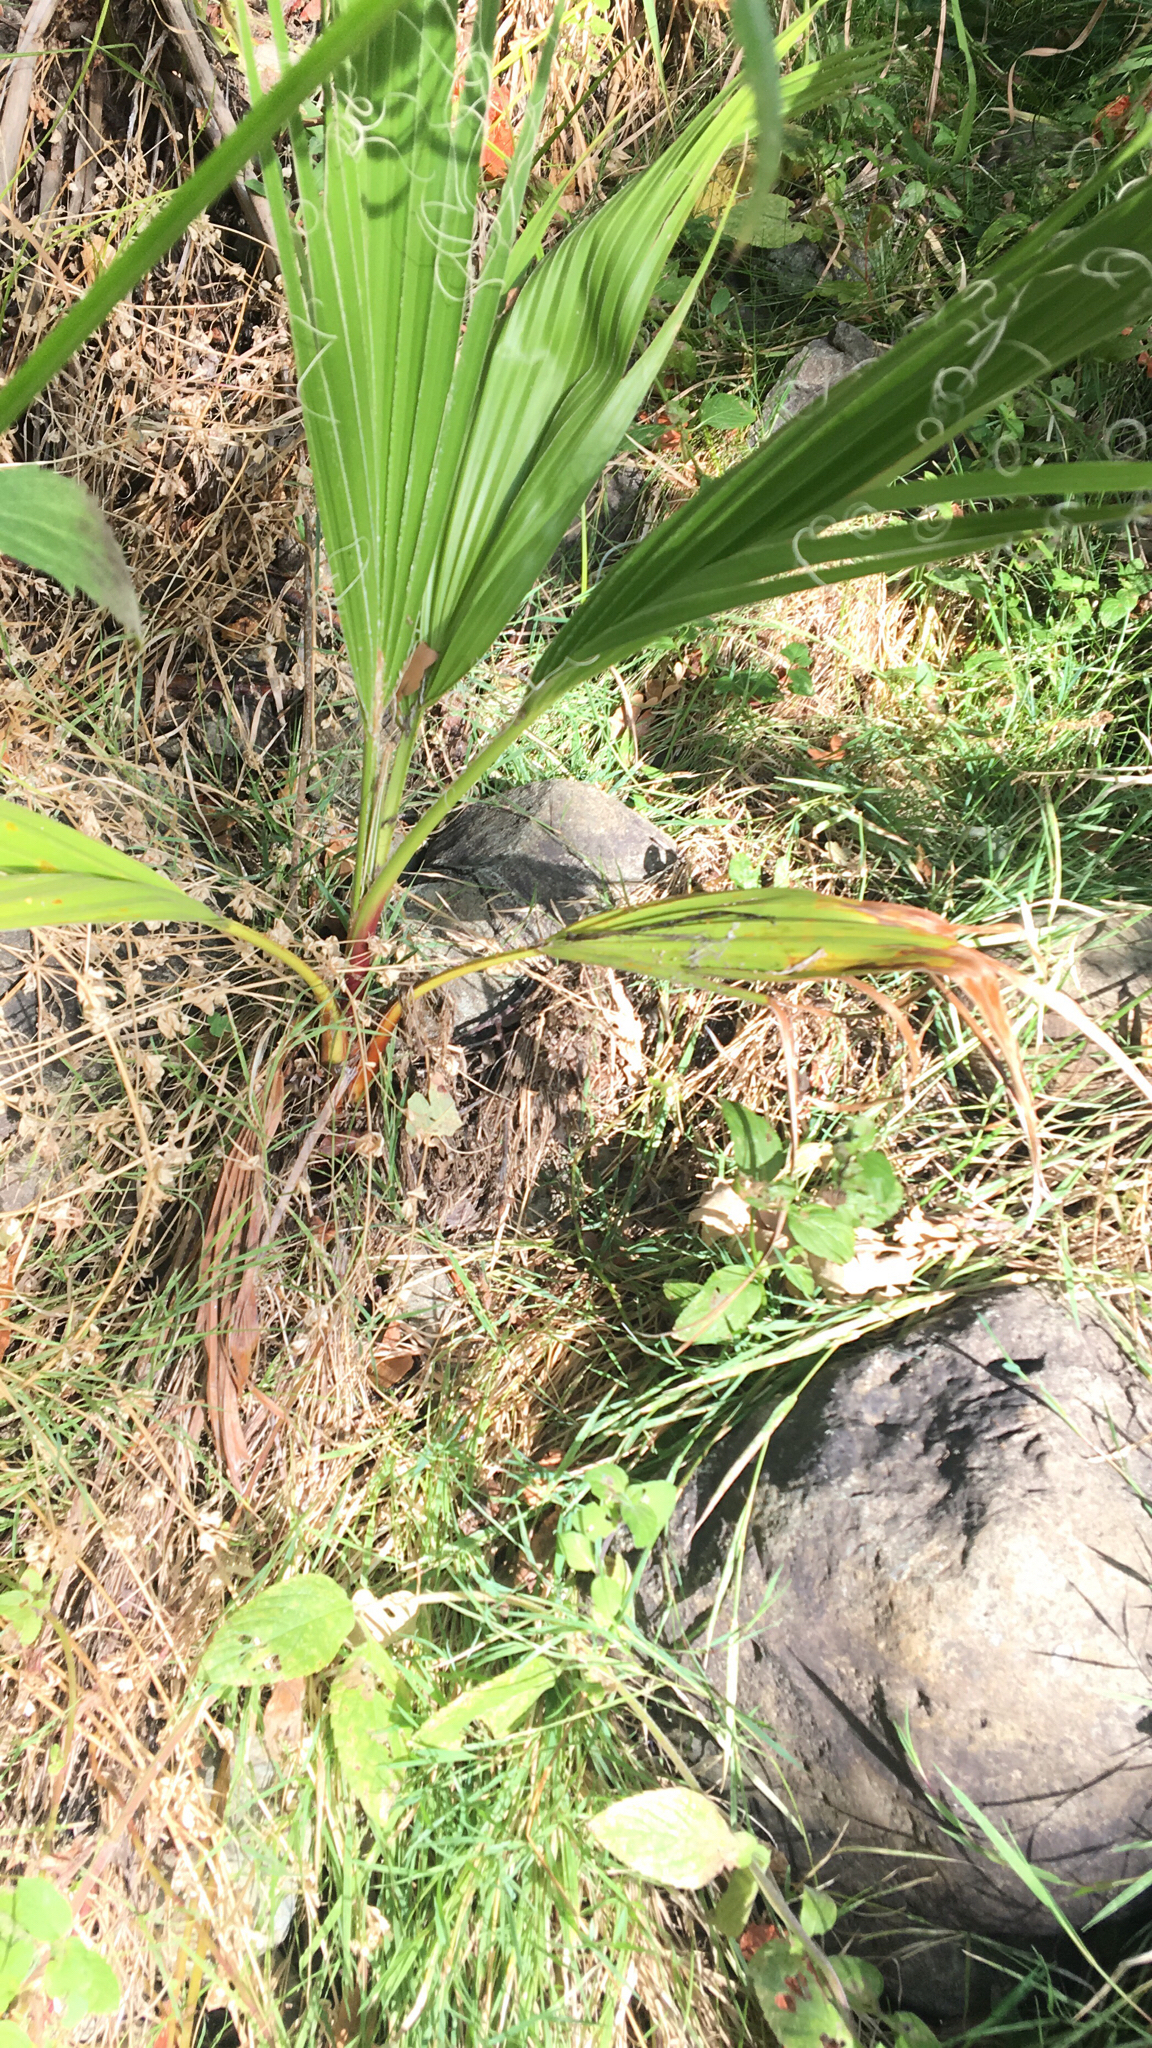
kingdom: Plantae
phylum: Tracheophyta
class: Liliopsida
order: Arecales
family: Arecaceae
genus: Washingtonia
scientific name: Washingtonia robusta
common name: Mexican fan palm
